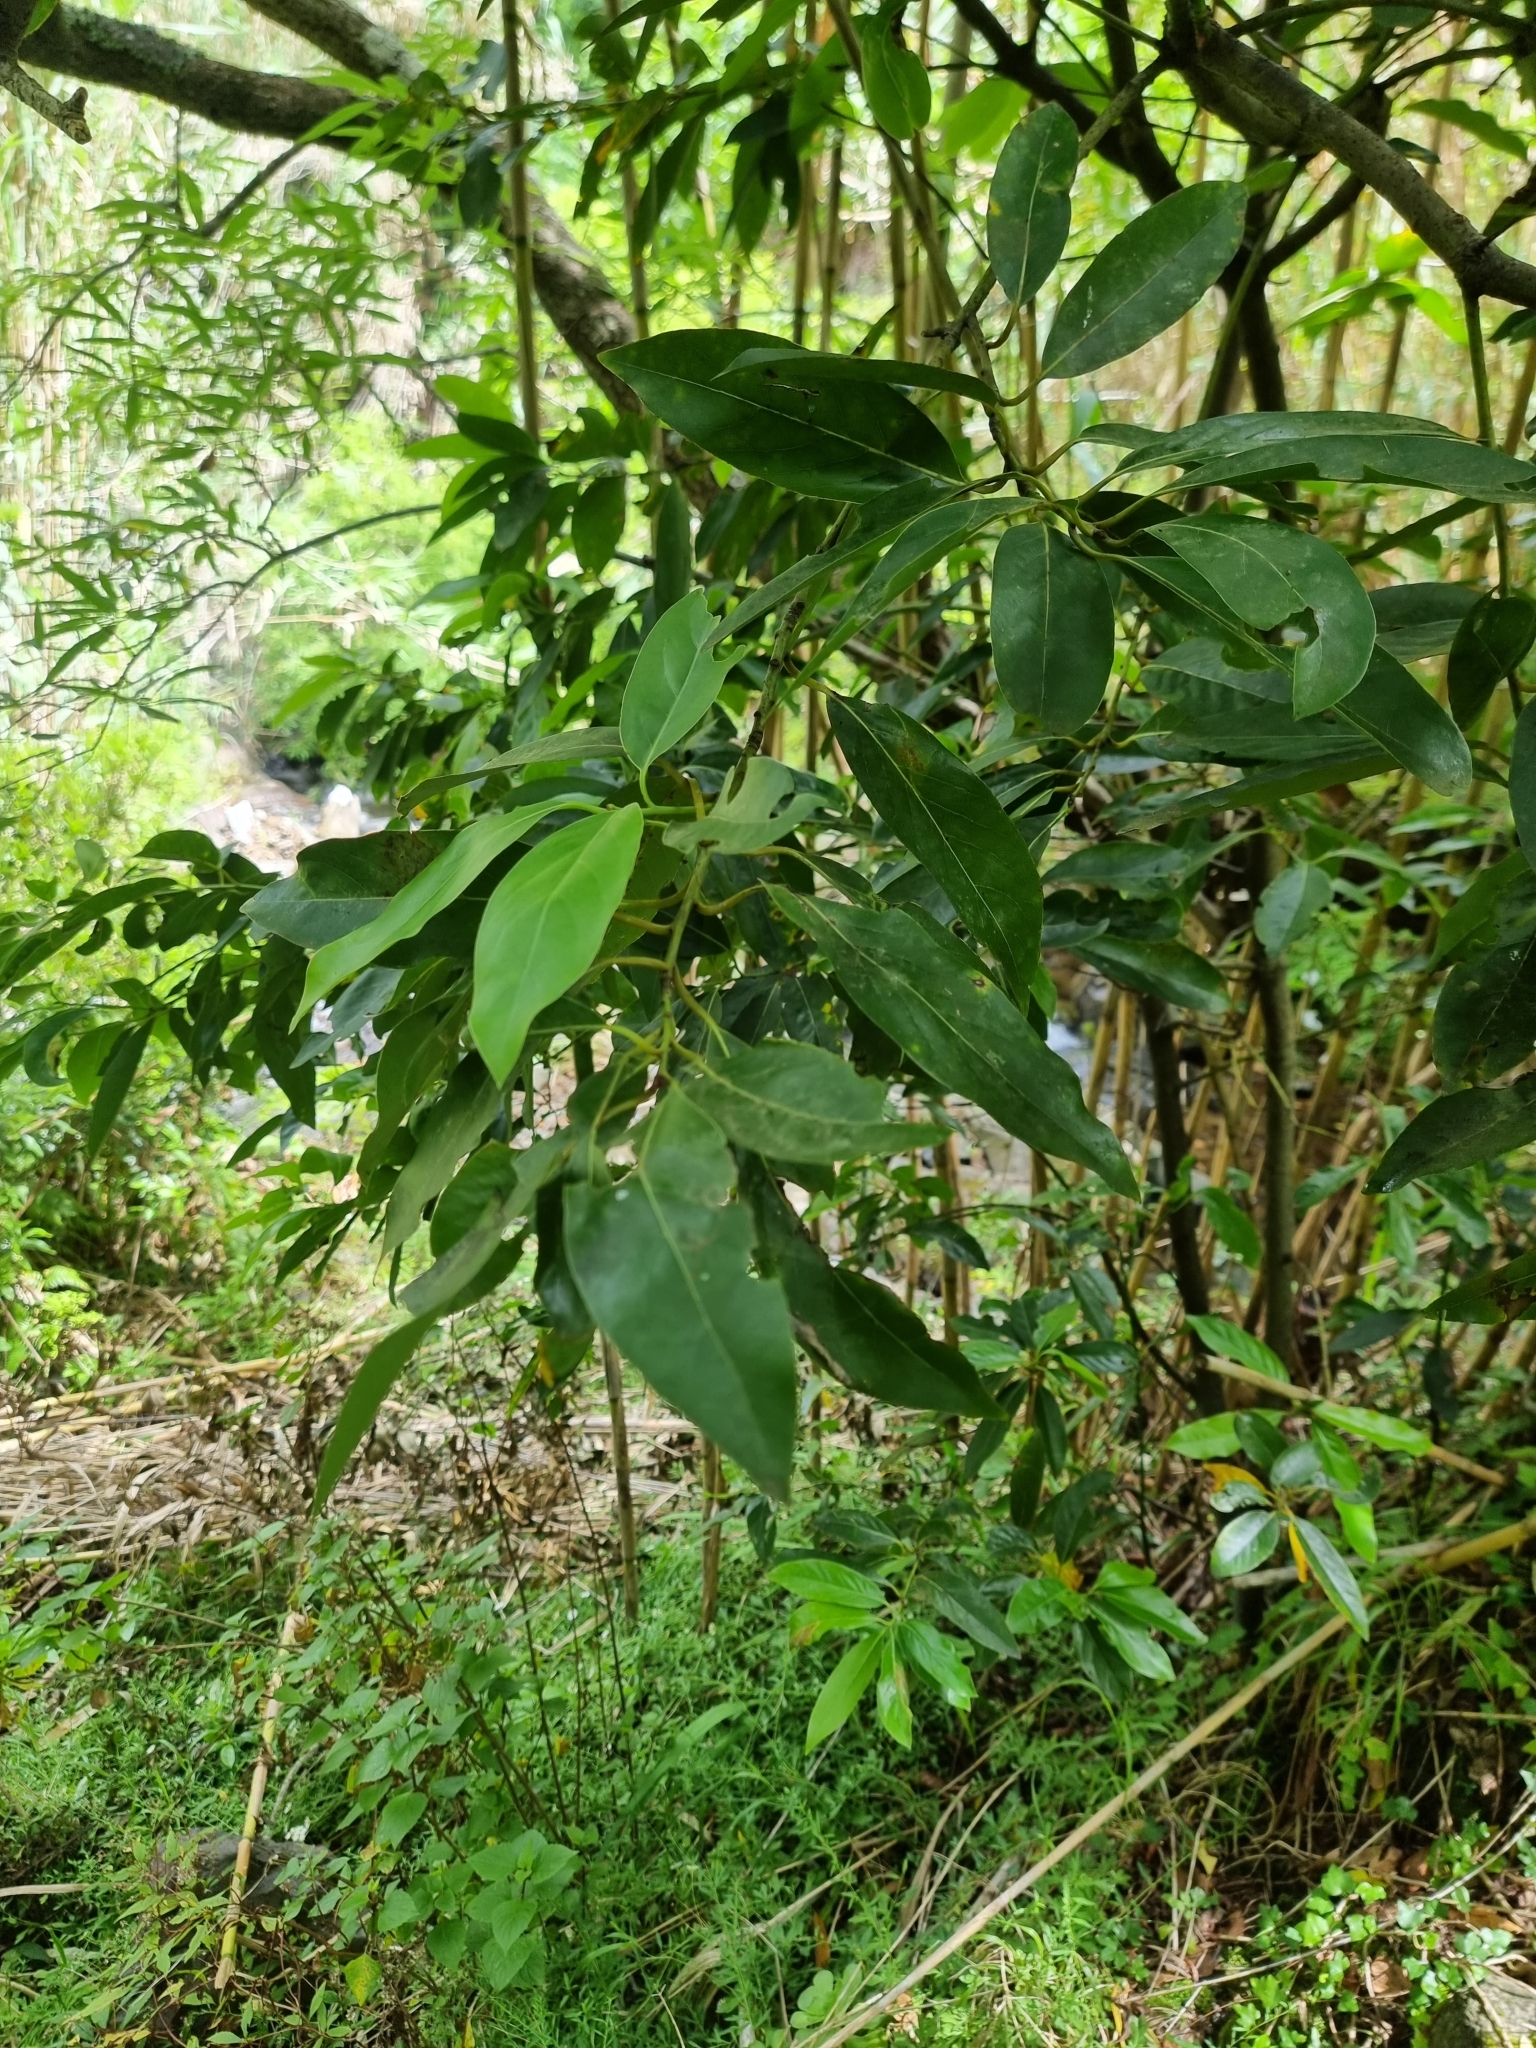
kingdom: Plantae
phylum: Tracheophyta
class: Magnoliopsida
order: Laurales
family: Lauraceae
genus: Laurus
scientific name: Laurus novocanariensis
